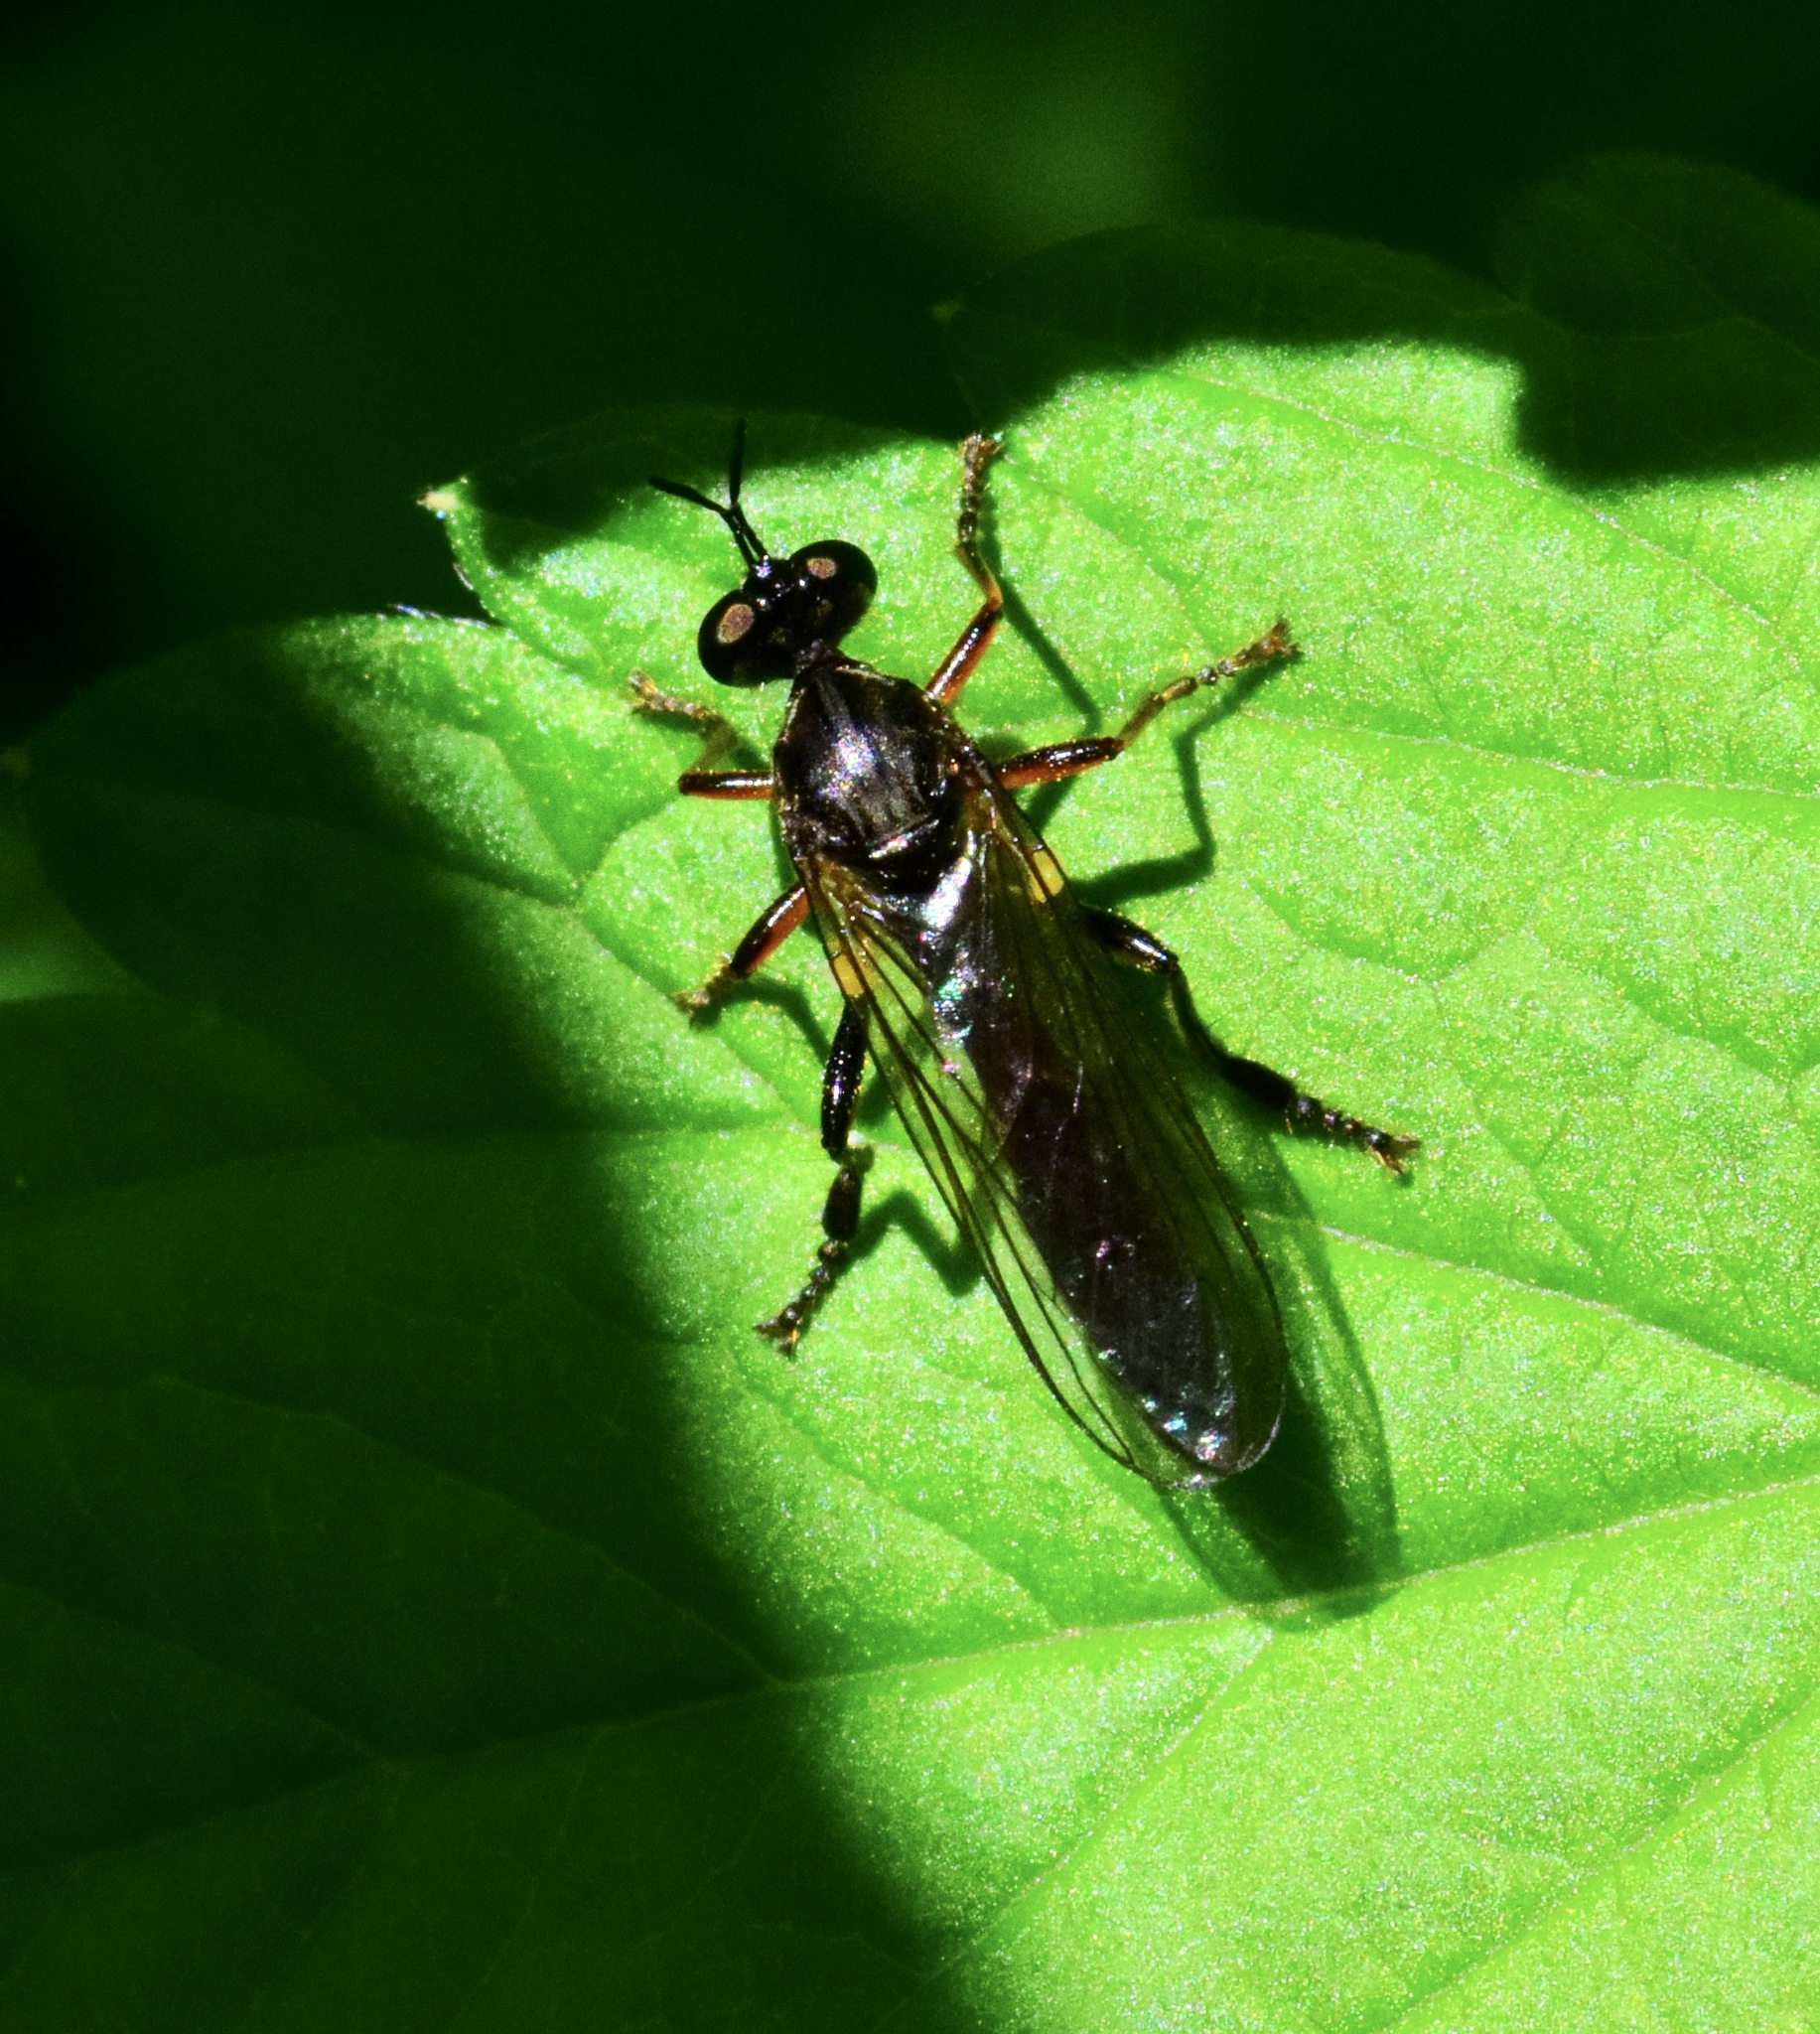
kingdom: Animalia
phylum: Arthropoda
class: Insecta
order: Diptera
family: Asilidae
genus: Dioctria
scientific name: Dioctria hyalipennis
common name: Stripe-legged robberfly
